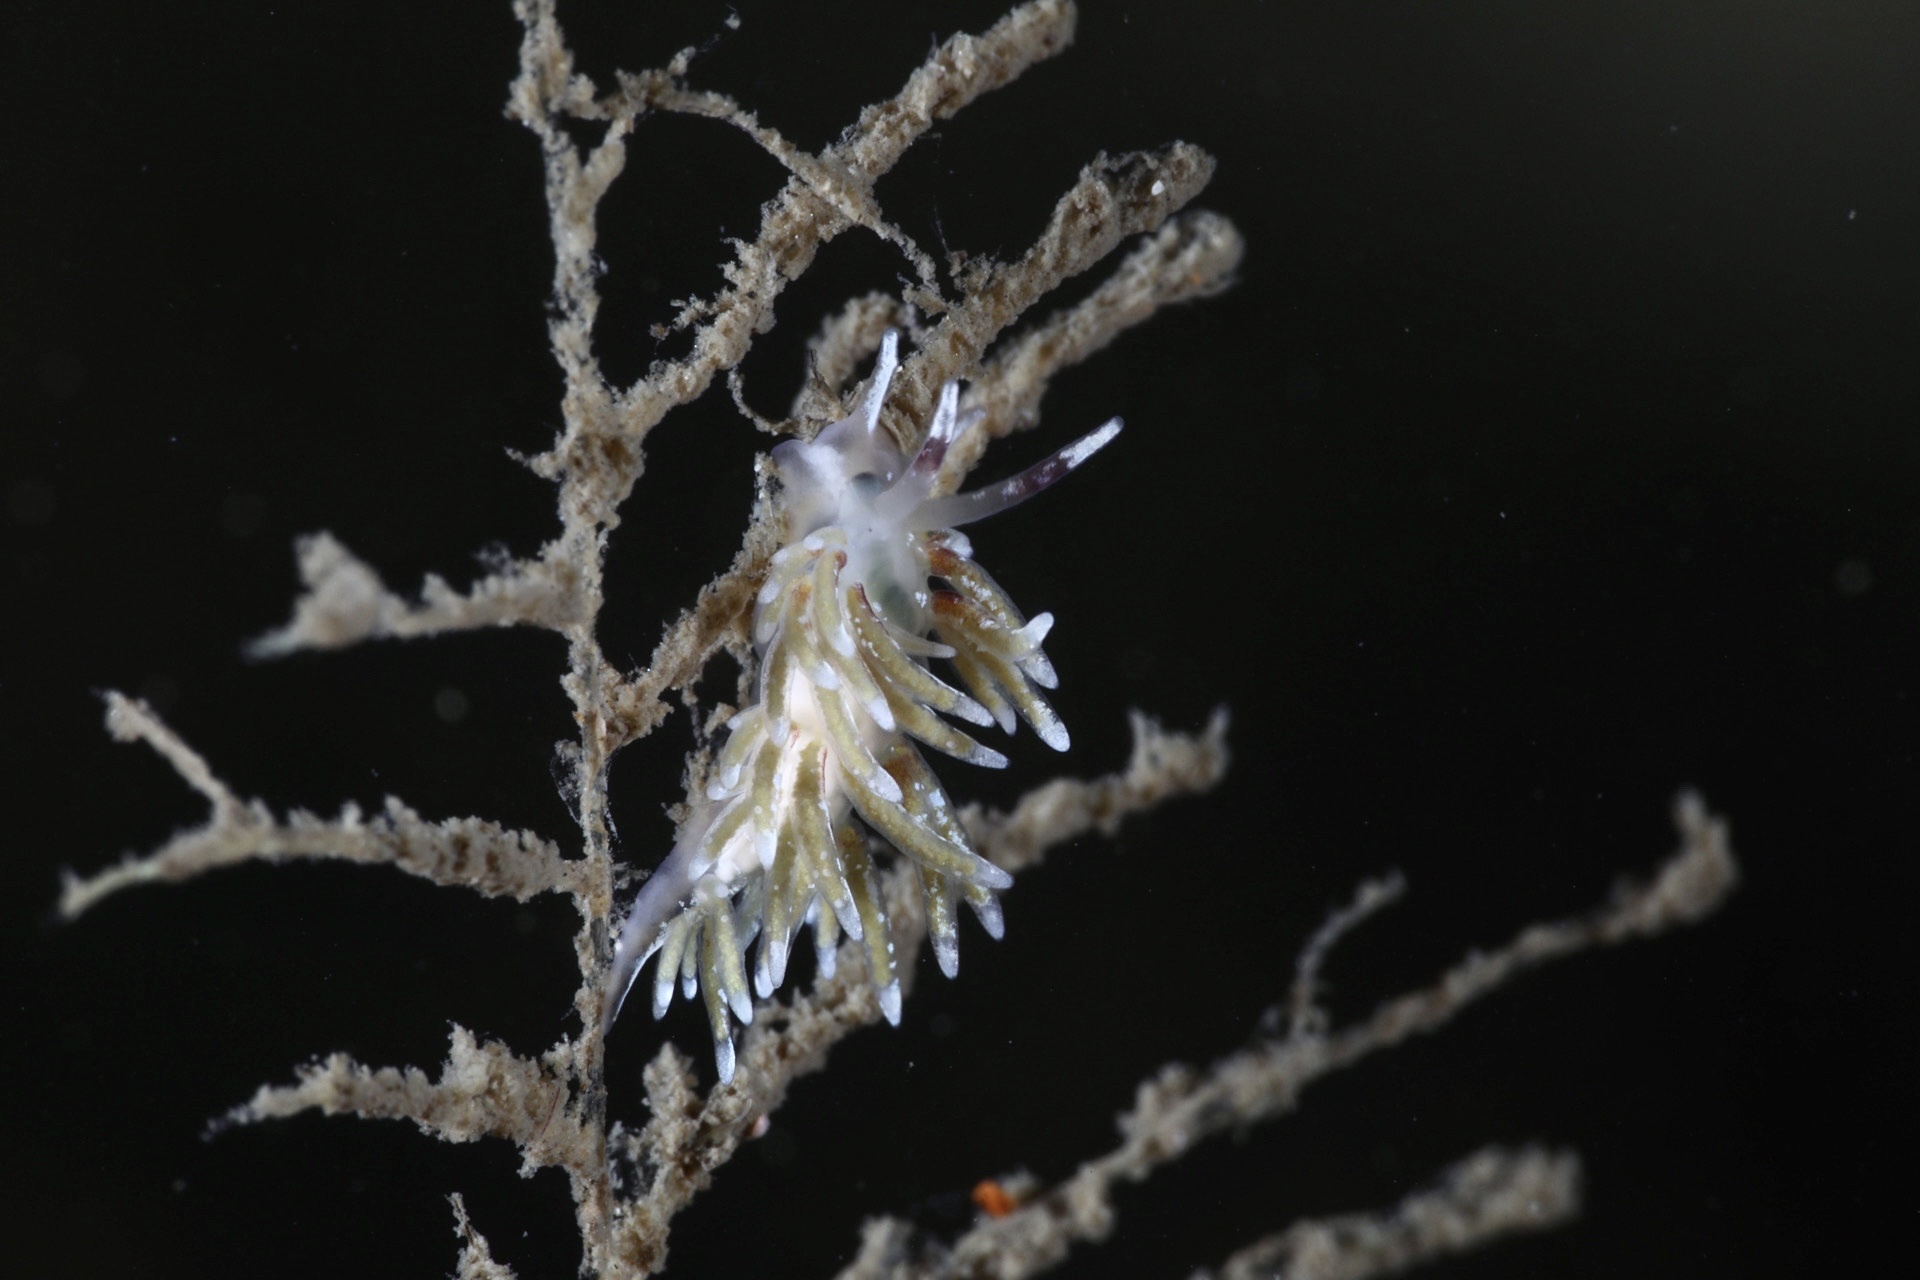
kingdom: Animalia
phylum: Mollusca
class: Gastropoda
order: Nudibranchia
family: Trinchesiidae
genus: Rubramoena
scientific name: Rubramoena rubescens
